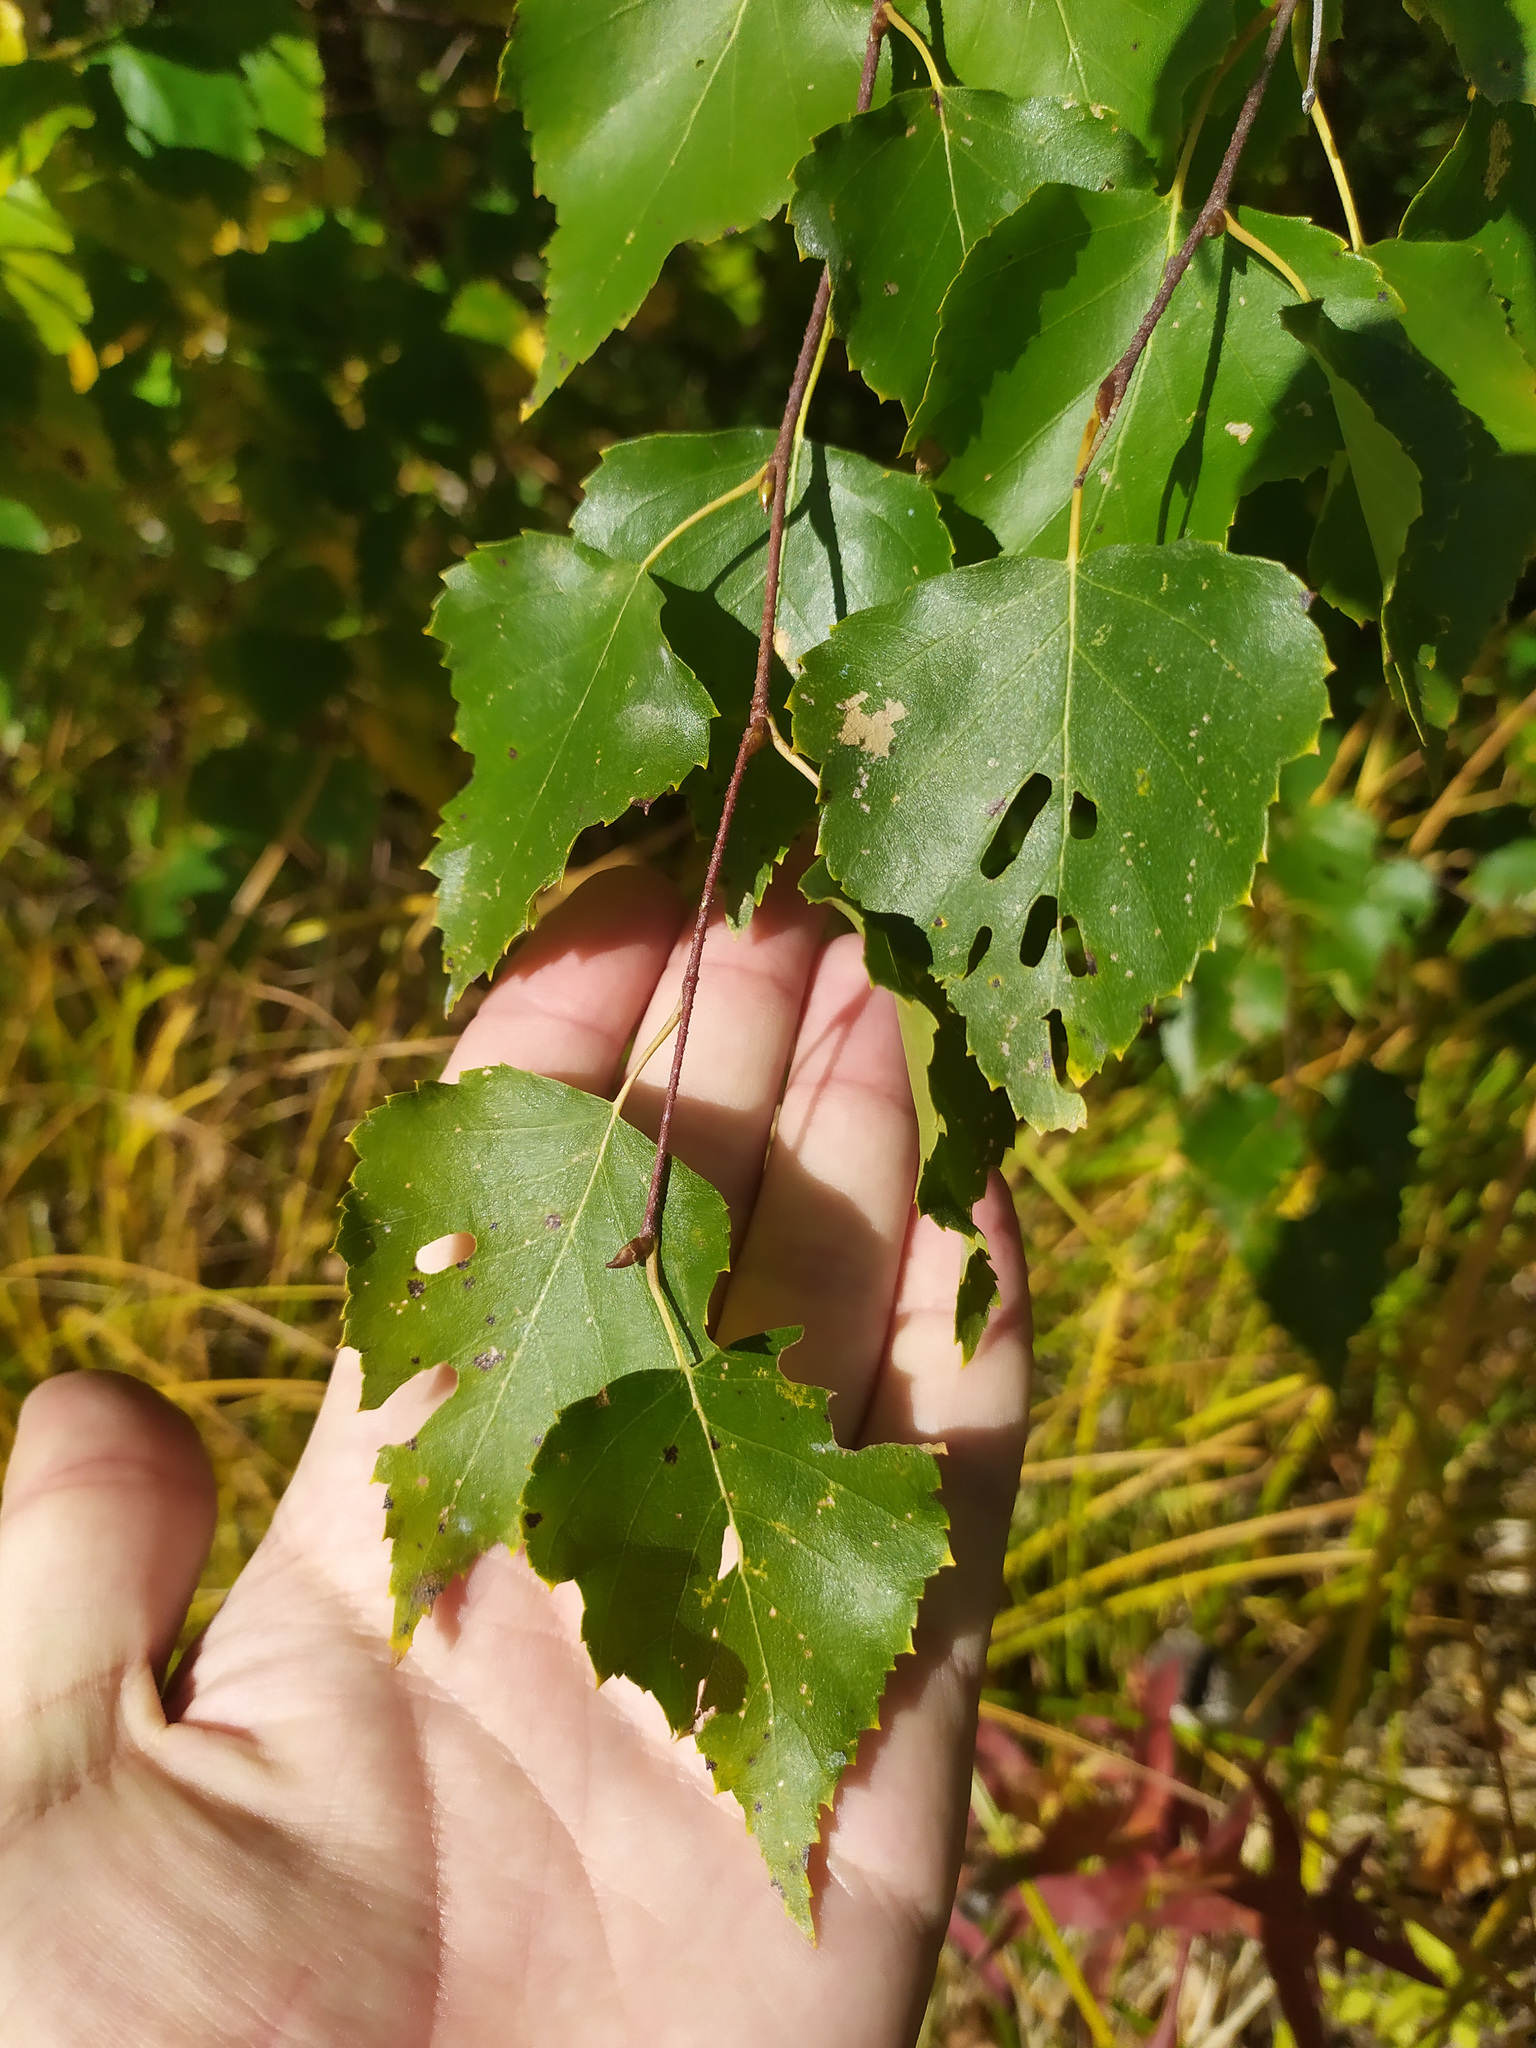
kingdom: Plantae
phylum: Tracheophyta
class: Magnoliopsida
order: Fagales
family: Betulaceae
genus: Betula
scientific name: Betula pendula
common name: Silver birch
